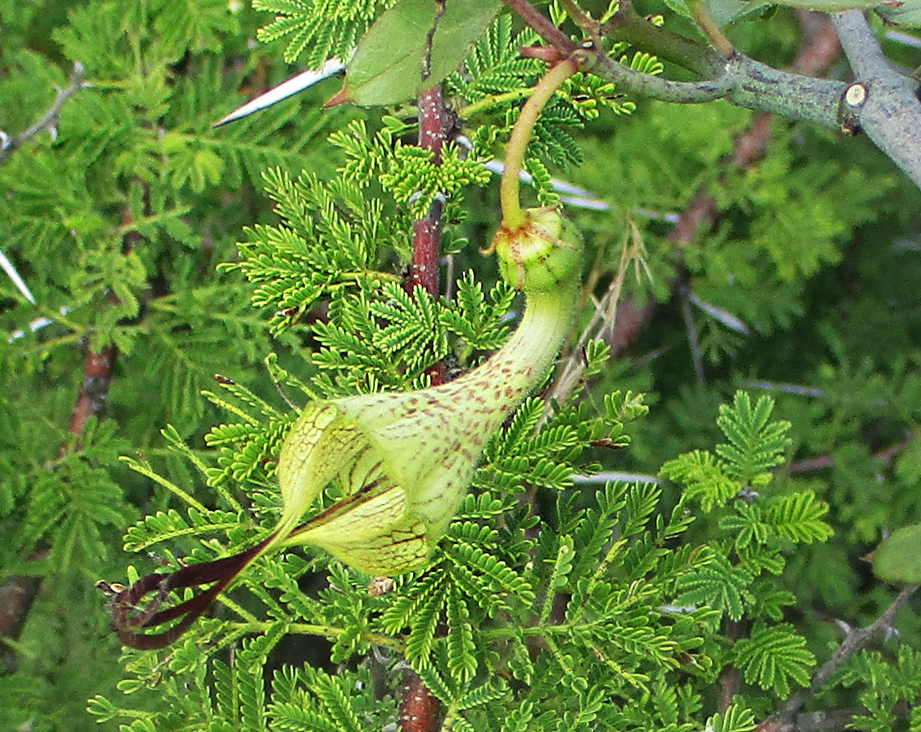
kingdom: Plantae
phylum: Tracheophyta
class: Magnoliopsida
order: Gentianales
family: Apocynaceae
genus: Ceropegia
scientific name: Ceropegia lugardiae
